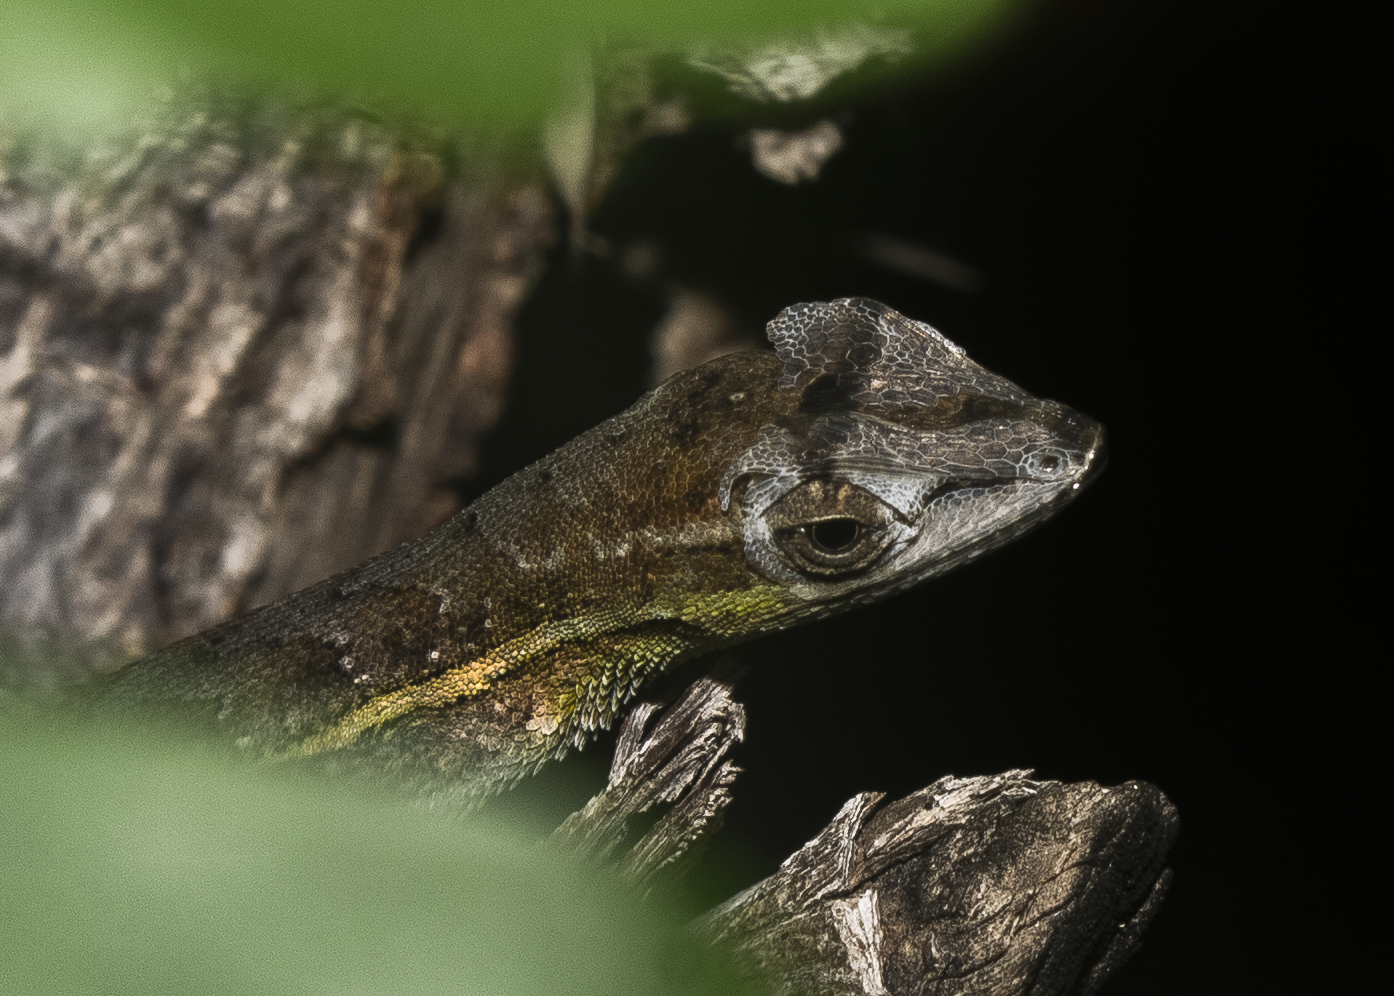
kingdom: Animalia
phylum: Chordata
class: Squamata
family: Dactyloidae
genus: Anolis
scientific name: Anolis auratus
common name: Grass anole
